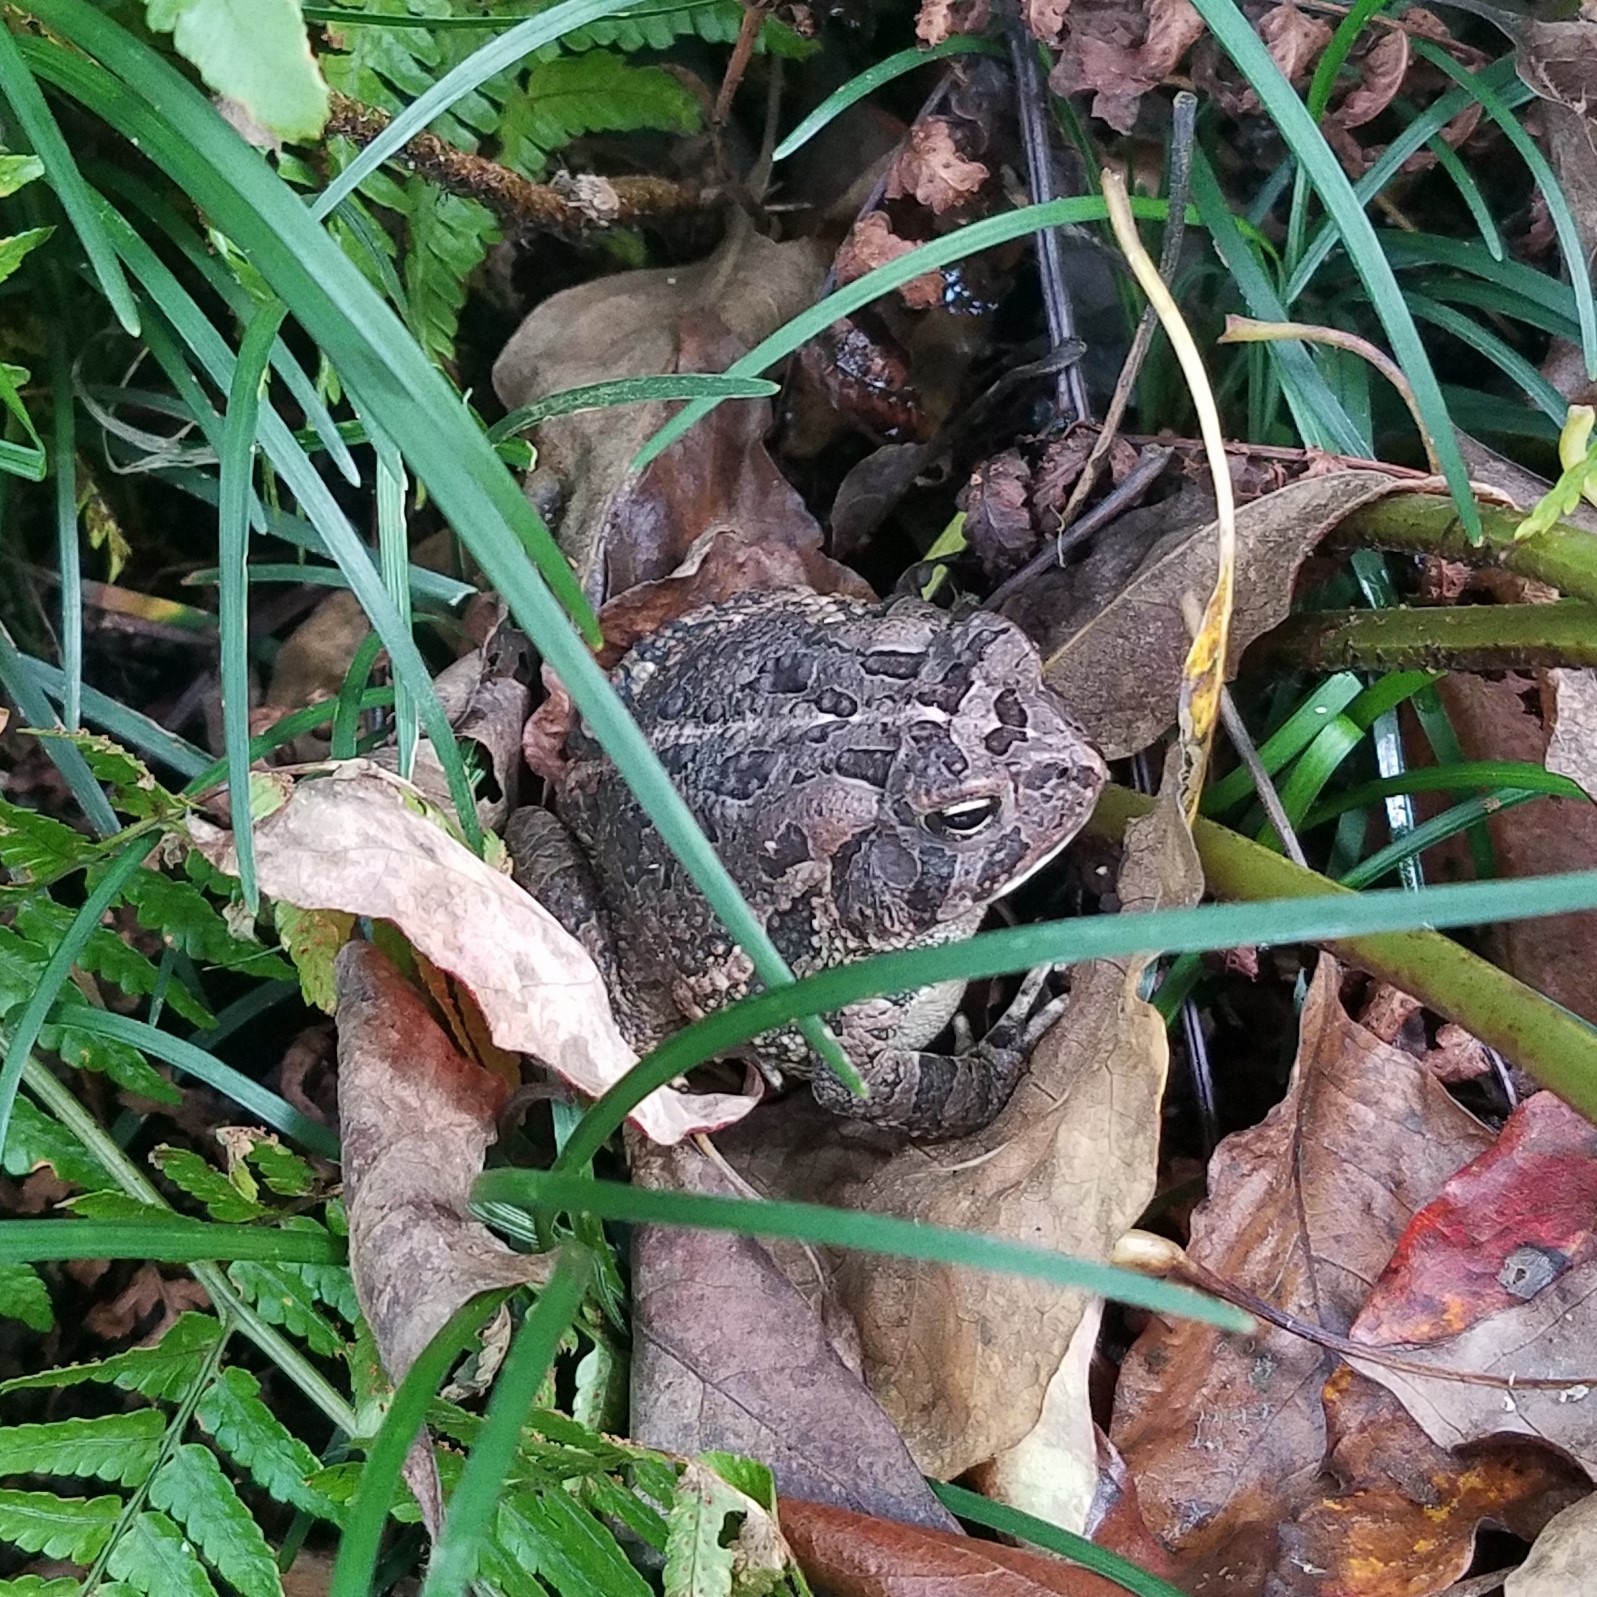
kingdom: Animalia
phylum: Chordata
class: Amphibia
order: Anura
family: Bufonidae
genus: Anaxyrus
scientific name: Anaxyrus fowleri
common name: Fowler's toad
